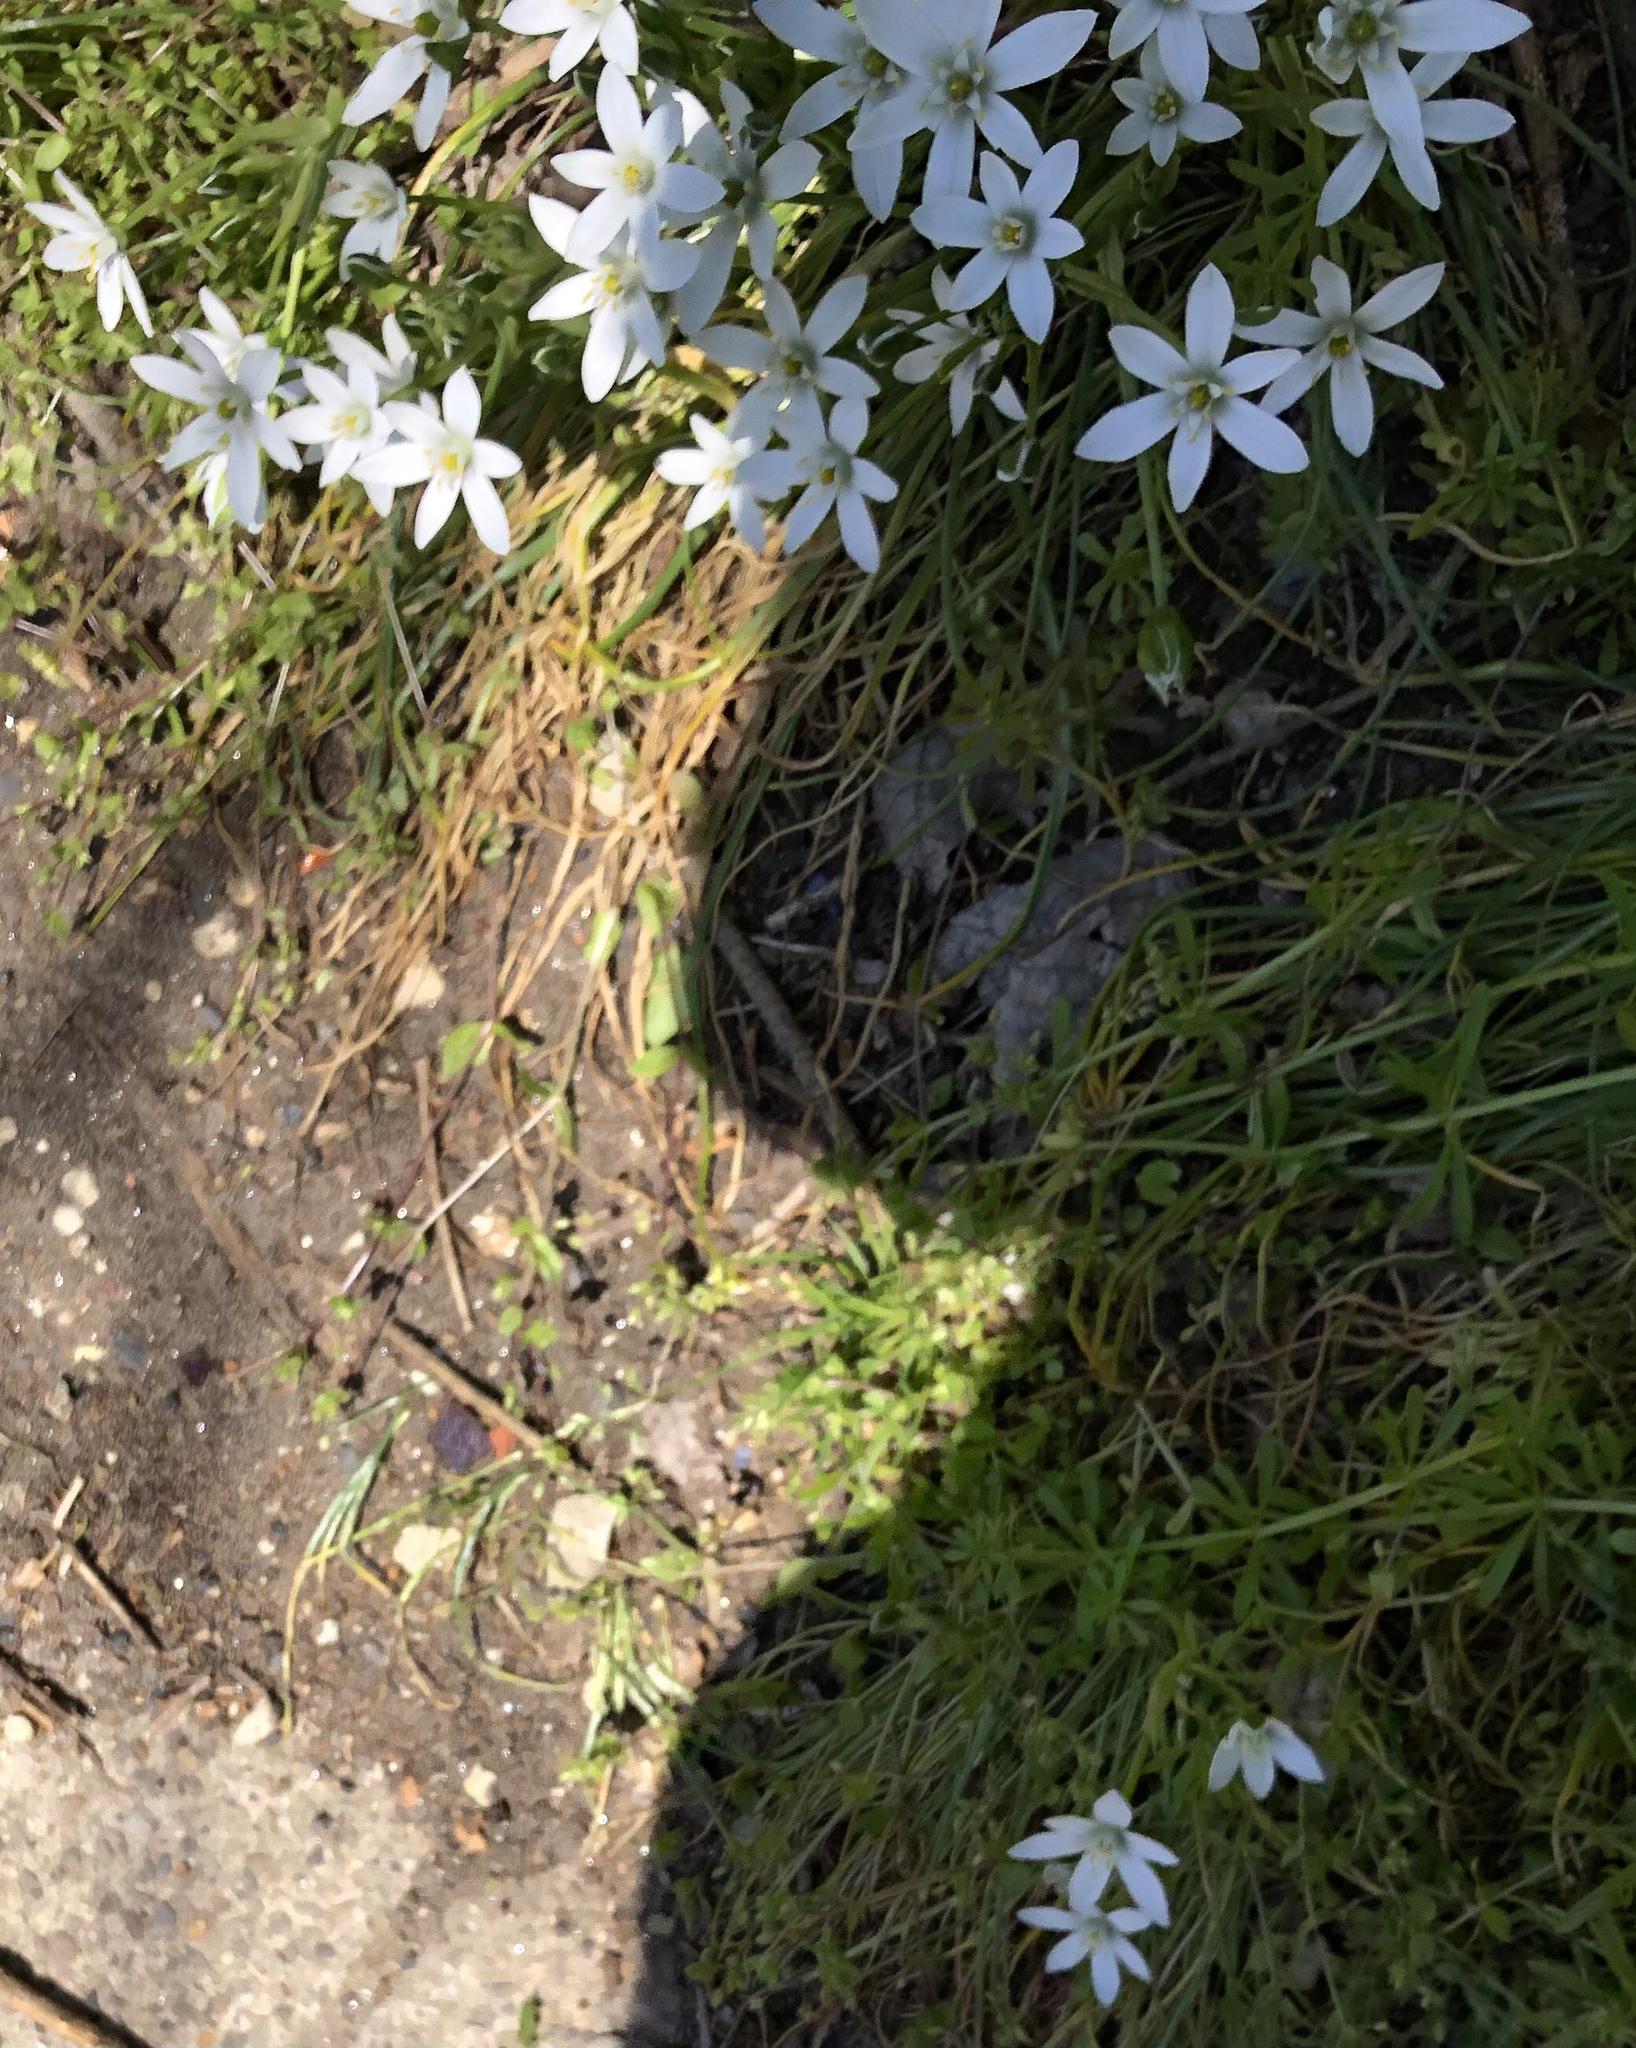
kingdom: Plantae
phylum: Tracheophyta
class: Liliopsida
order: Asparagales
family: Asparagaceae
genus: Ornithogalum
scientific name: Ornithogalum umbellatum
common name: Garden star-of-bethlehem
